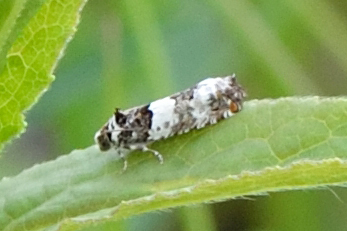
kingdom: Animalia
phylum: Arthropoda
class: Insecta
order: Lepidoptera
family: Tortricidae
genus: Epinotia
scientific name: Epinotia thapsiana
